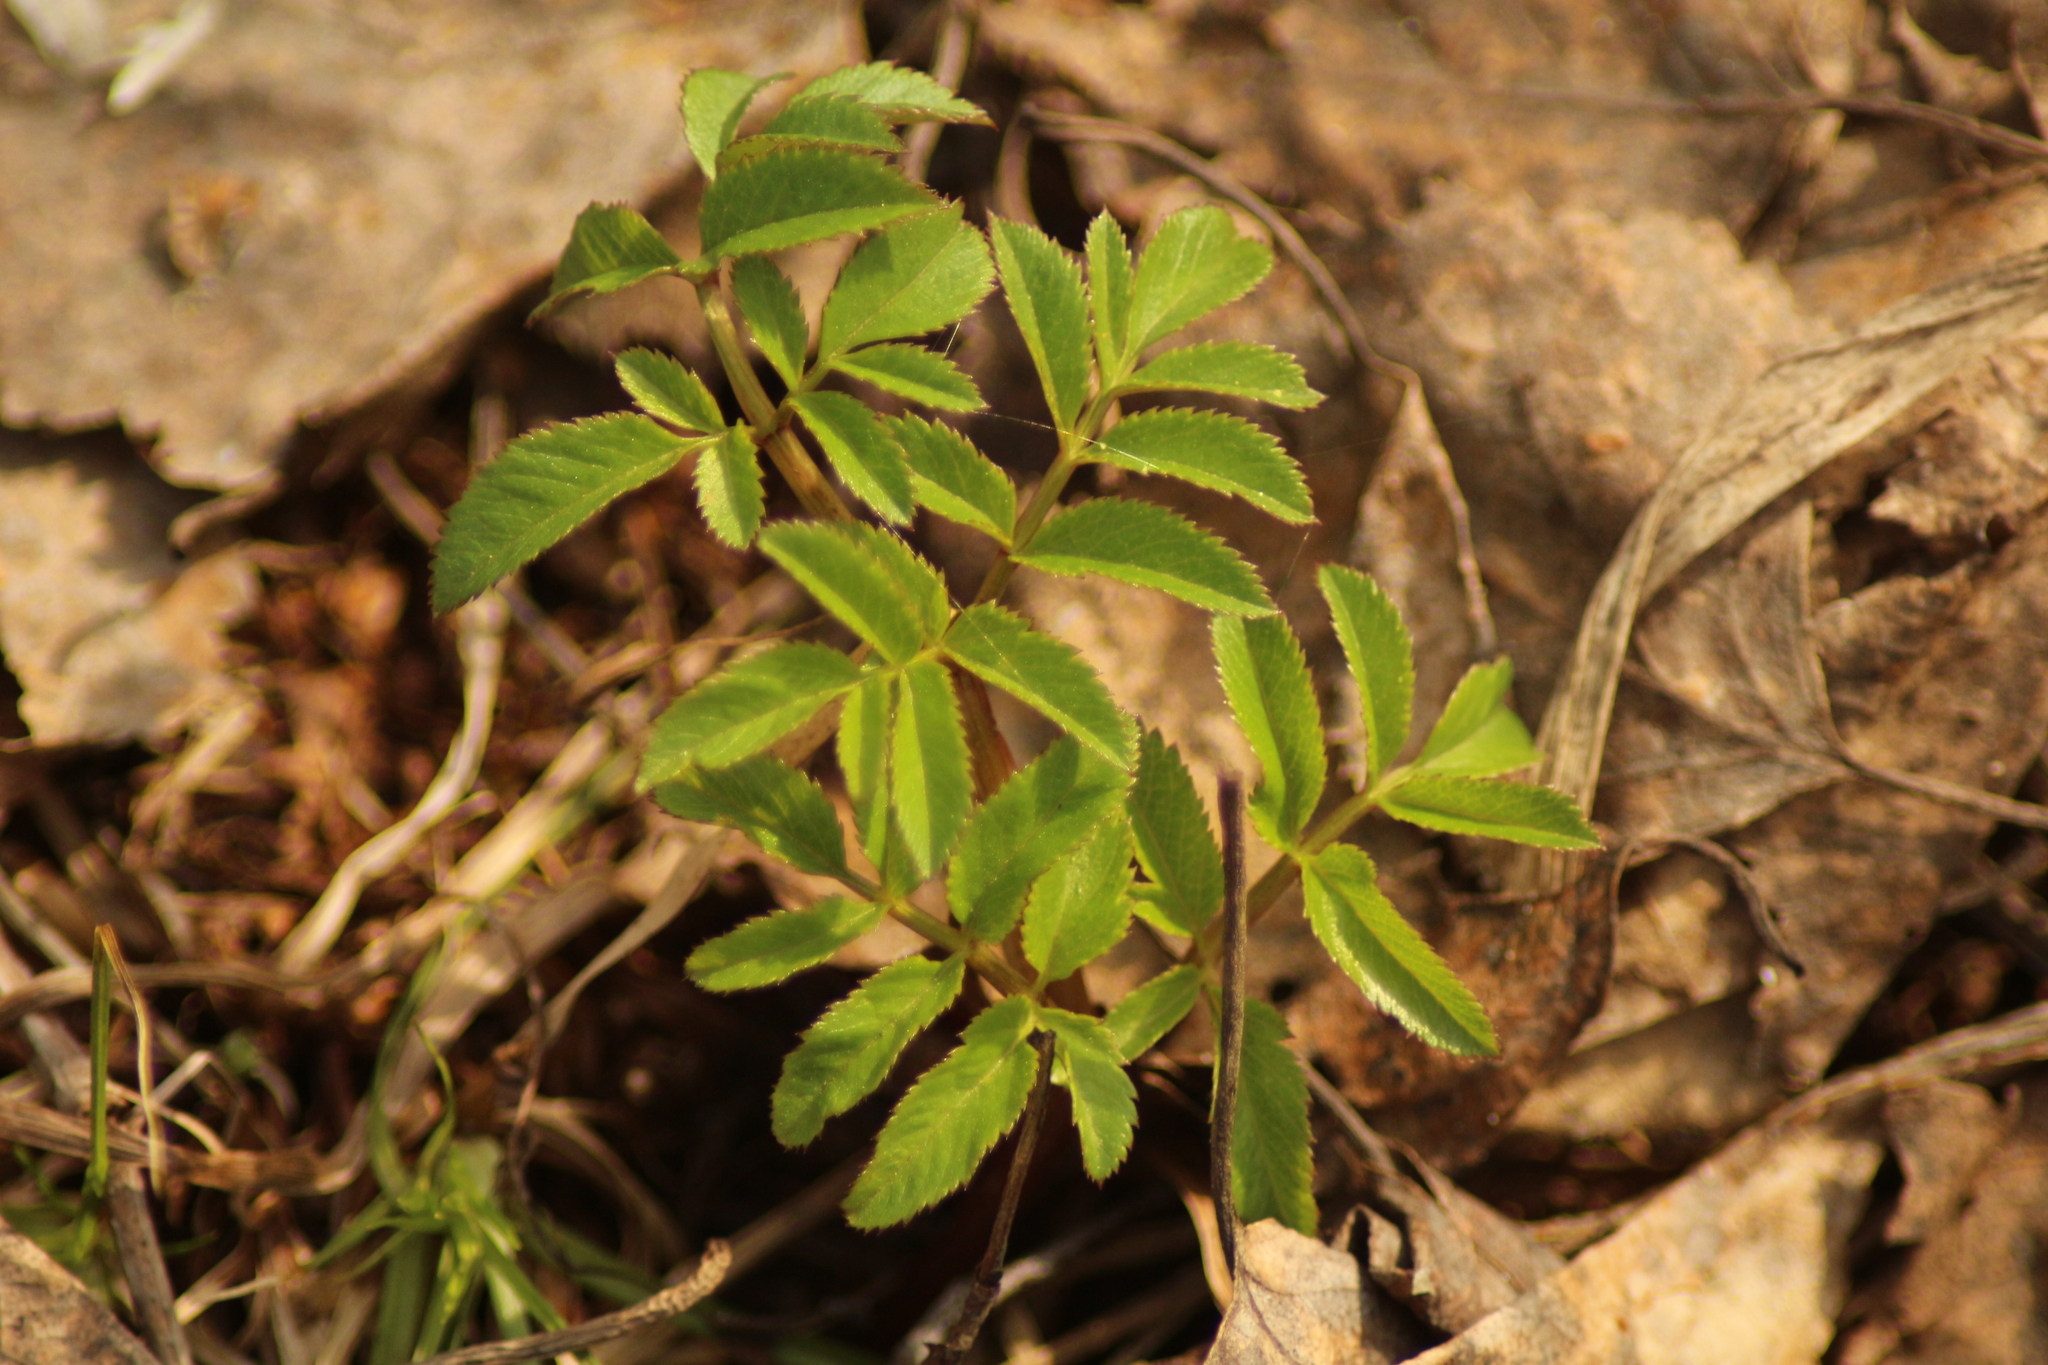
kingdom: Plantae
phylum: Tracheophyta
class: Magnoliopsida
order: Apiales
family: Apiaceae
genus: Angelica
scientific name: Angelica sylvestris
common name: Wild angelica
